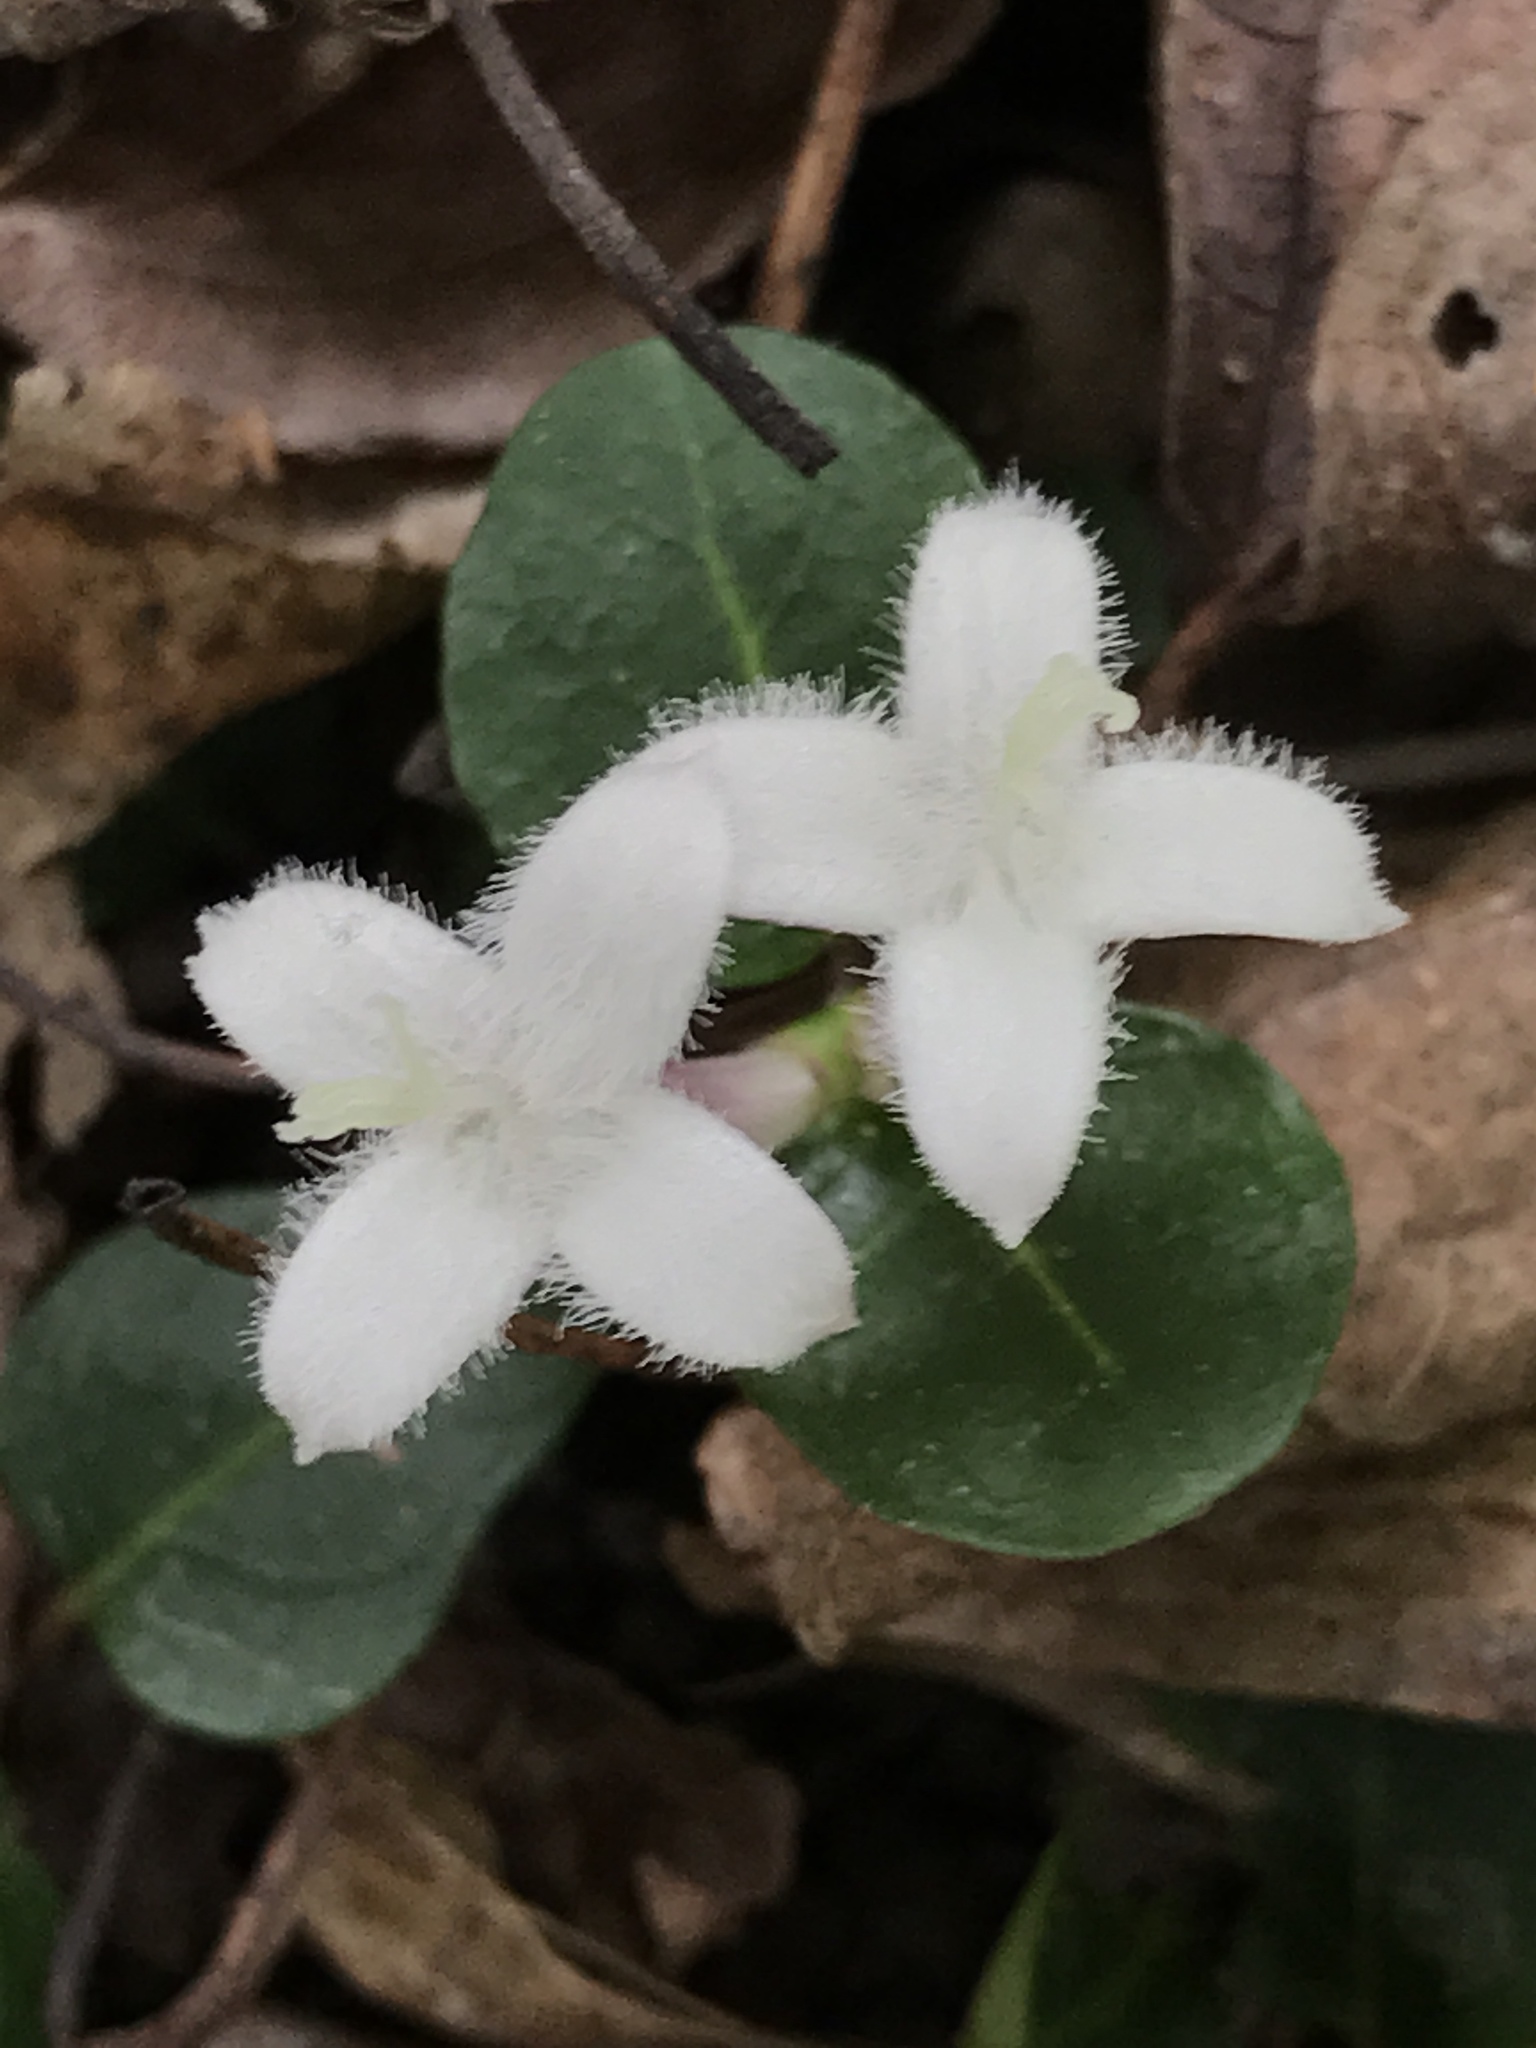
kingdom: Plantae
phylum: Tracheophyta
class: Magnoliopsida
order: Gentianales
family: Rubiaceae
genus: Mitchella
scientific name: Mitchella repens
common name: Partridge-berry
